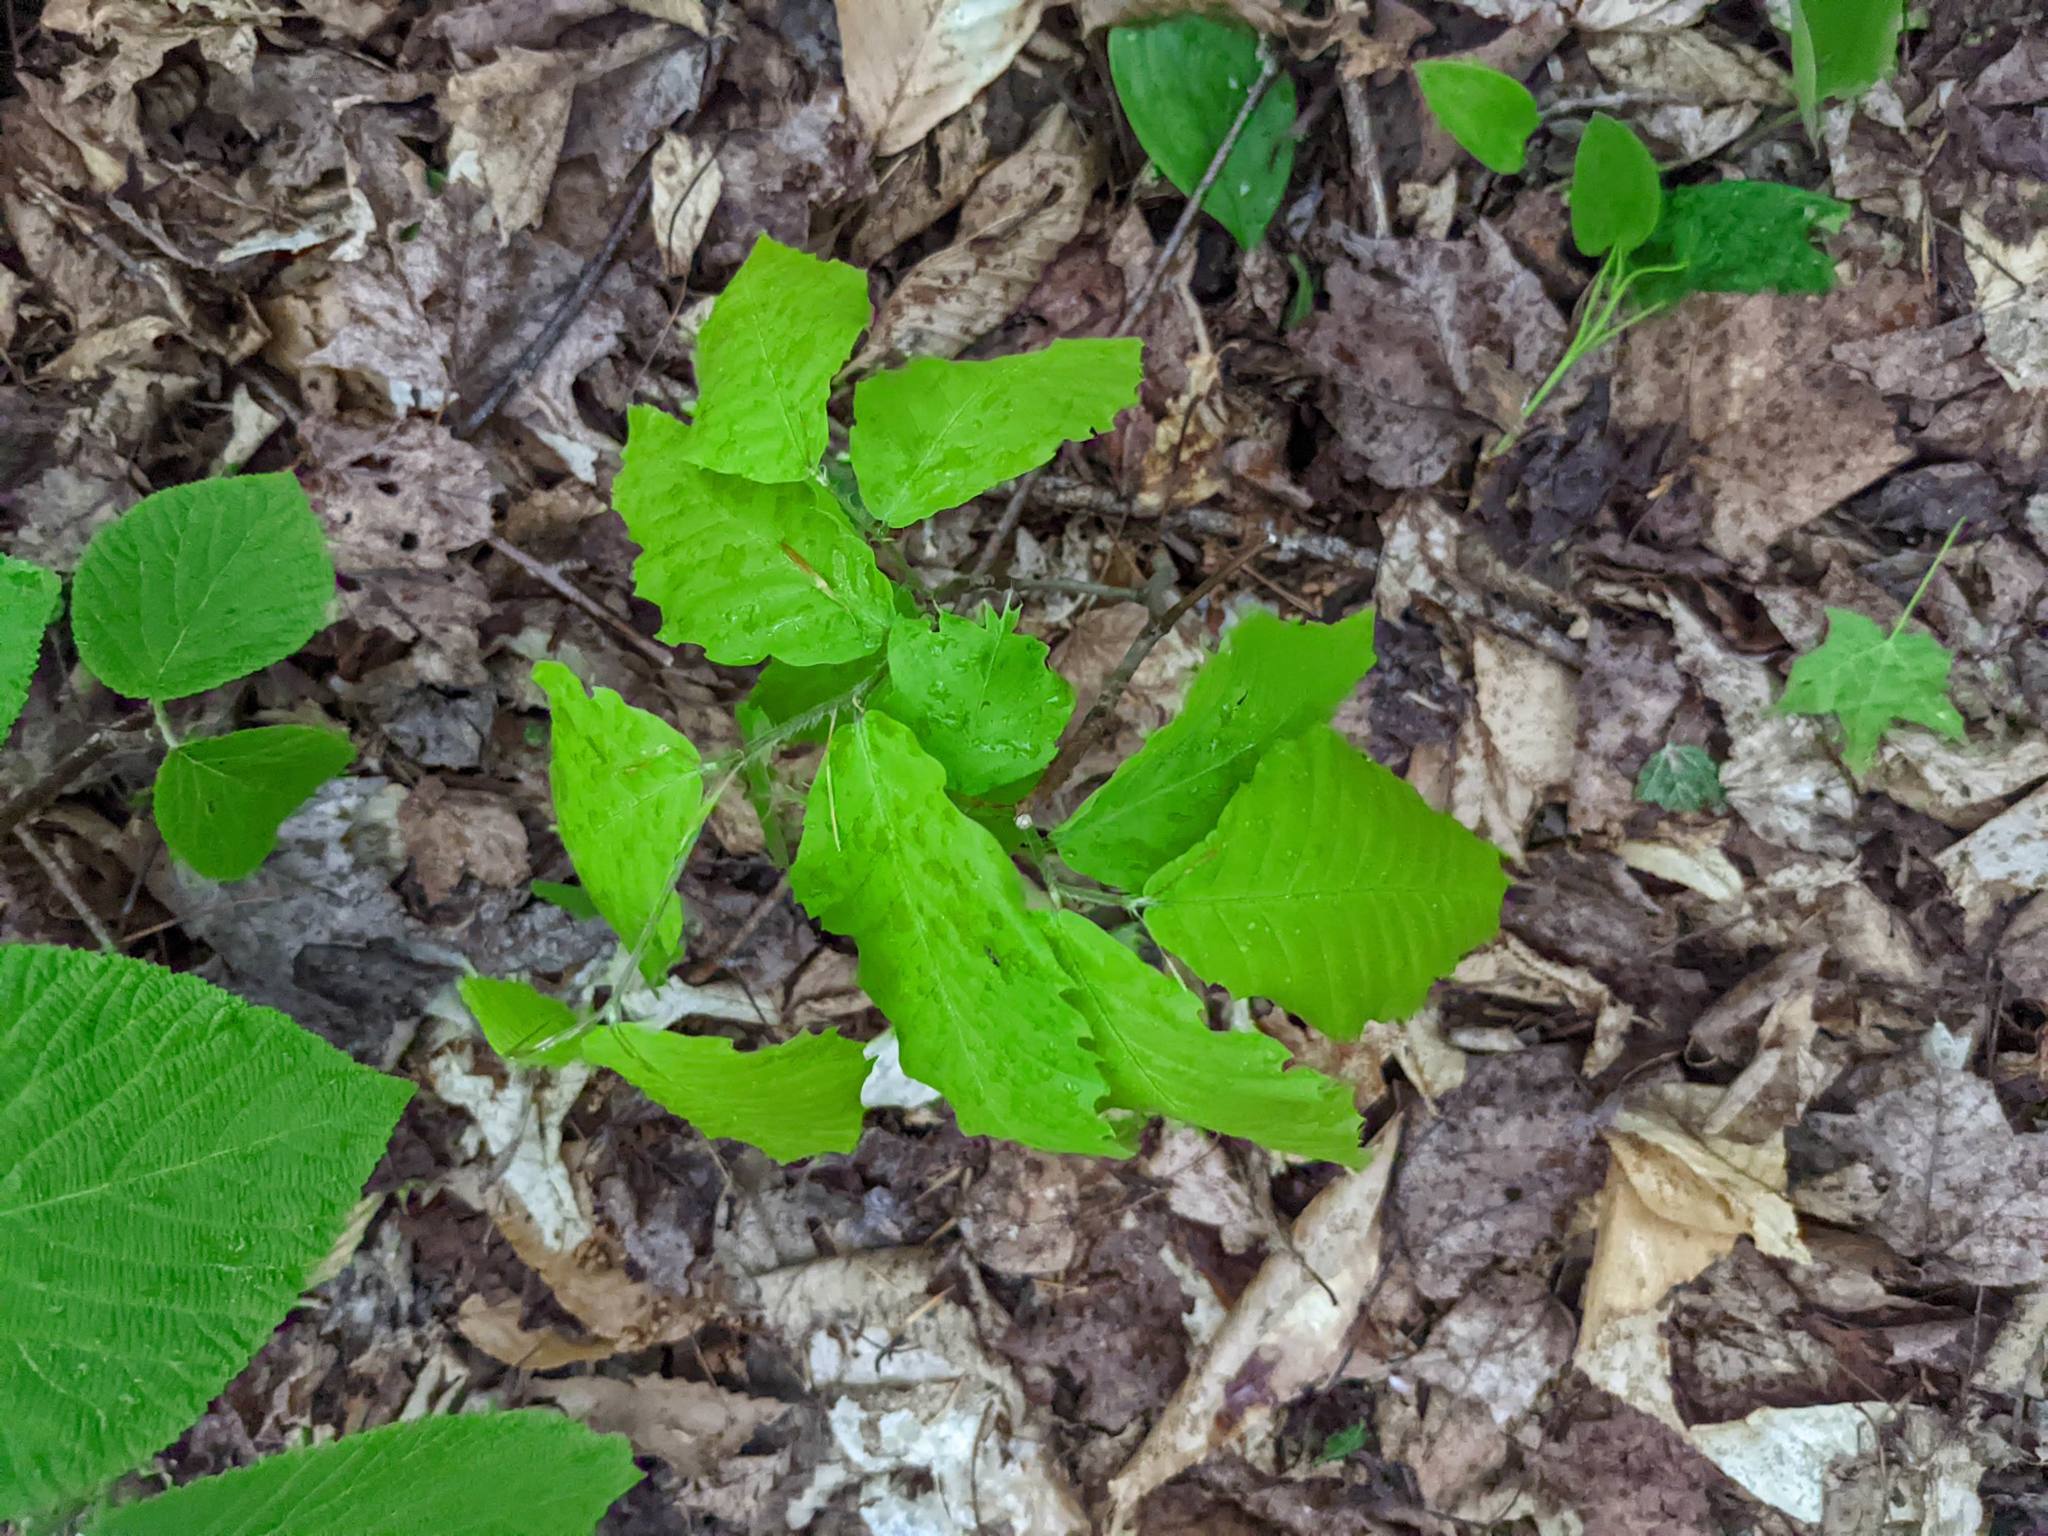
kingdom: Plantae
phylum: Tracheophyta
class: Magnoliopsida
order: Fagales
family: Fagaceae
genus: Fagus
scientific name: Fagus grandifolia
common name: American beech
